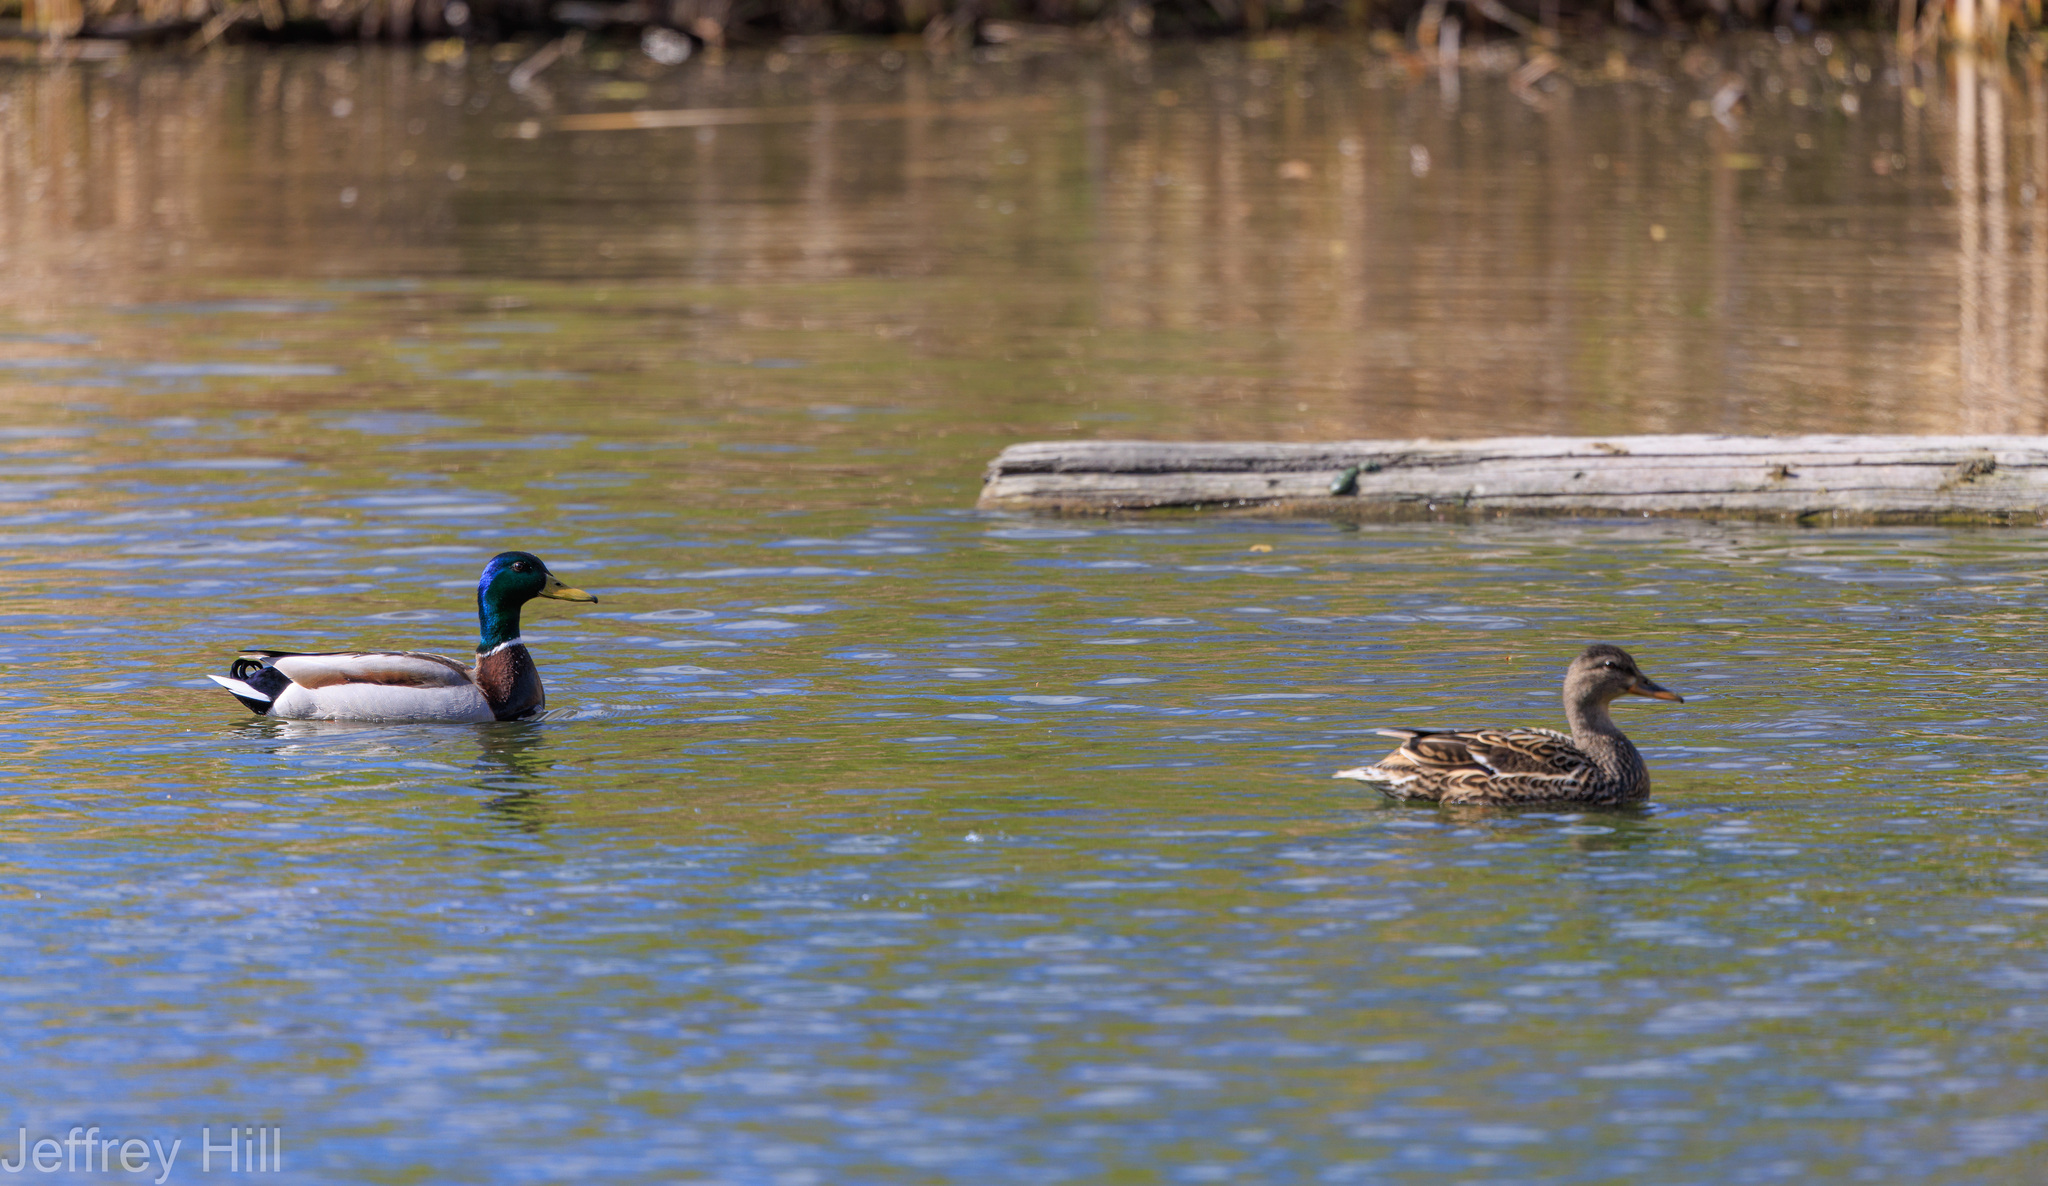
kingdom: Animalia
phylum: Chordata
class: Aves
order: Anseriformes
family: Anatidae
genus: Anas
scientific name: Anas platyrhynchos
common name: Mallard
